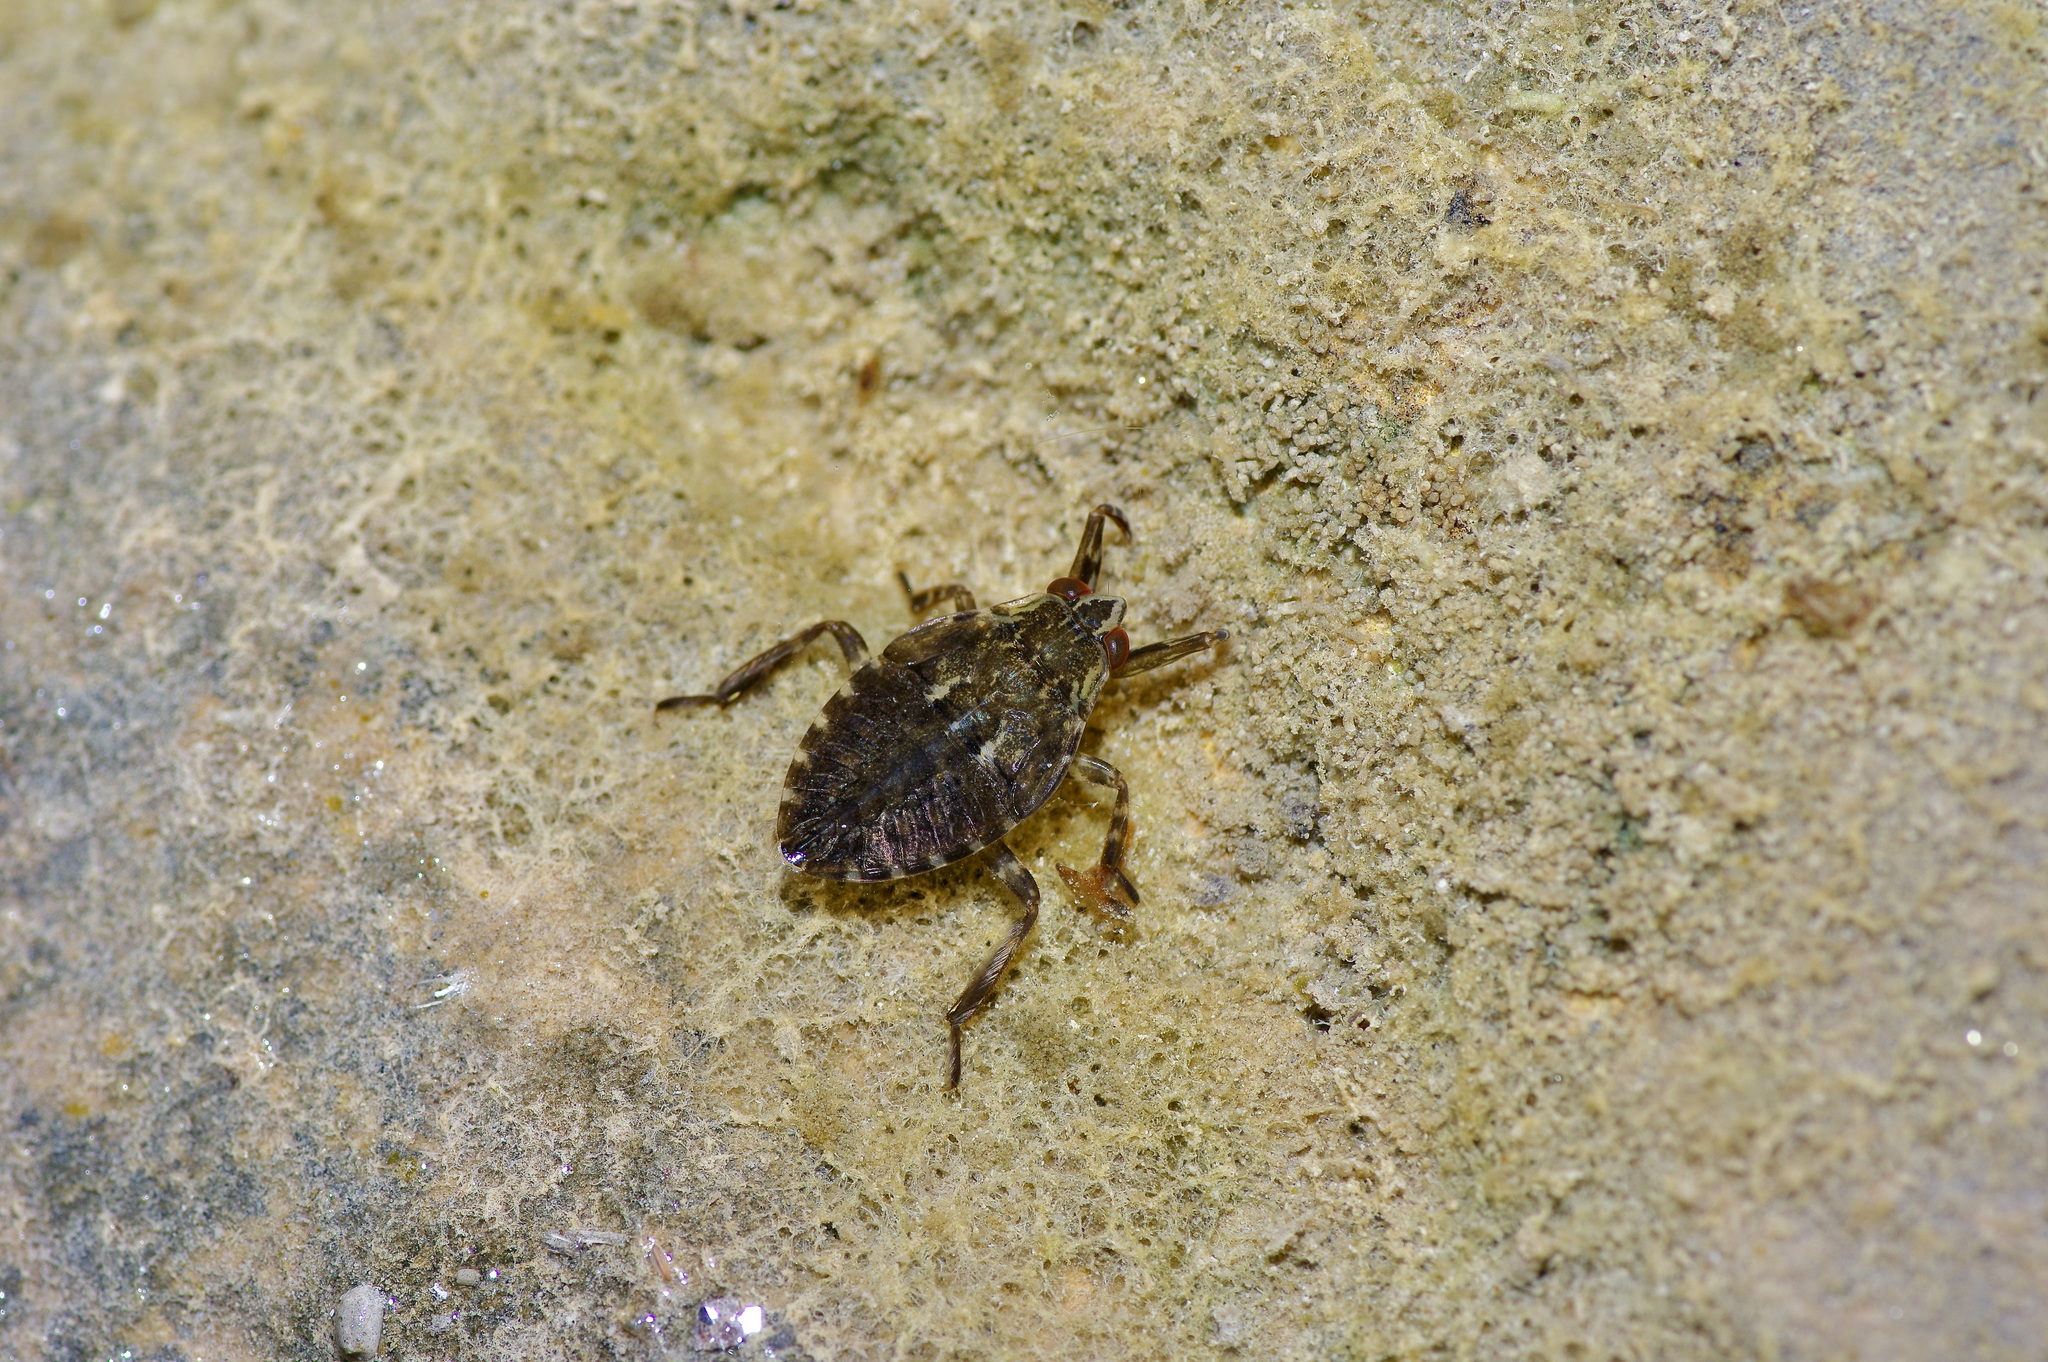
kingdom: Animalia
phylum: Arthropoda
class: Insecta
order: Hemiptera
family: Belostomatidae
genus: Belostoma
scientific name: Belostoma
